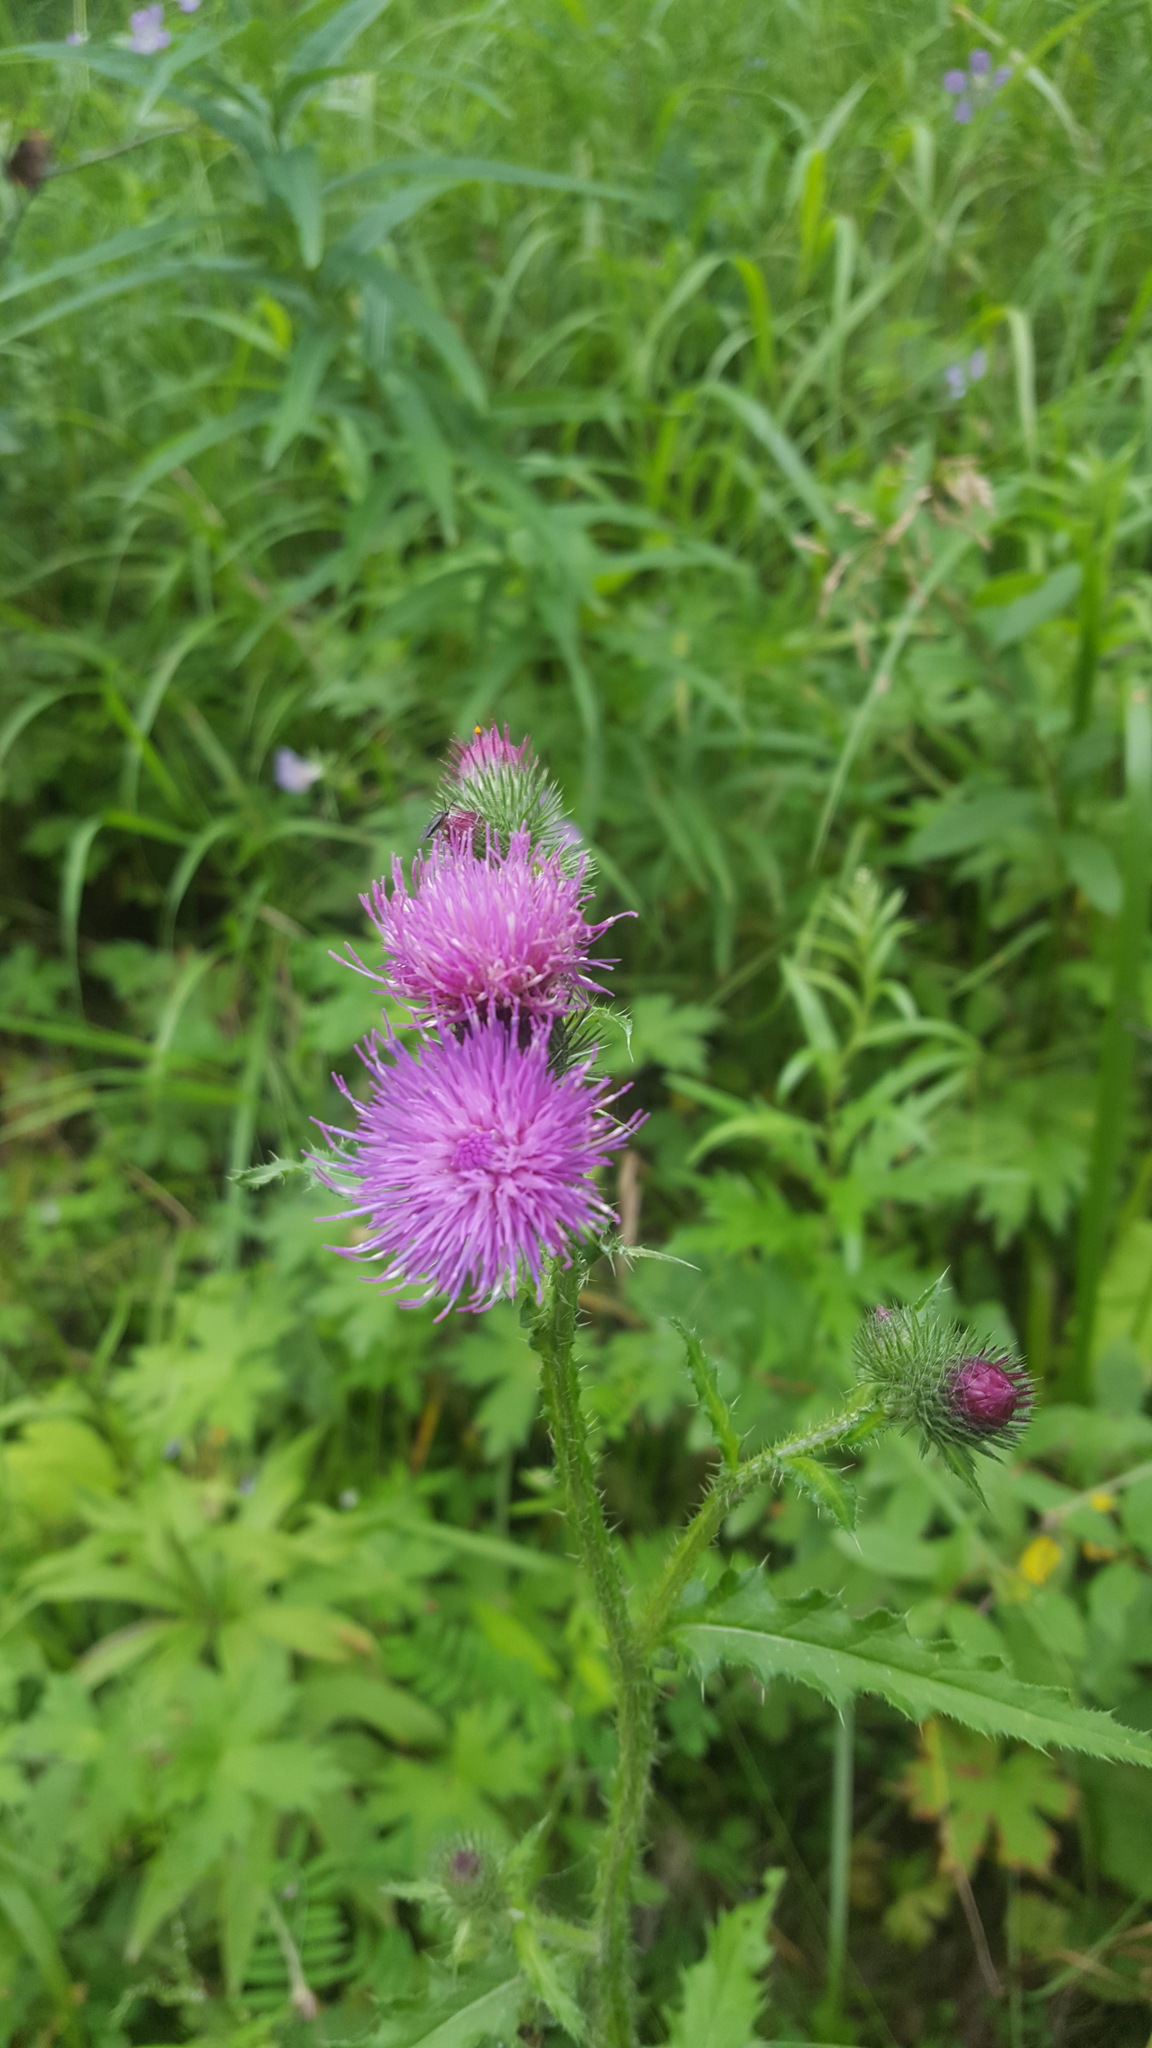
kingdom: Plantae
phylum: Tracheophyta
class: Magnoliopsida
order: Asterales
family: Asteraceae
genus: Carduus
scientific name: Carduus crispus
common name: Welted thistle
